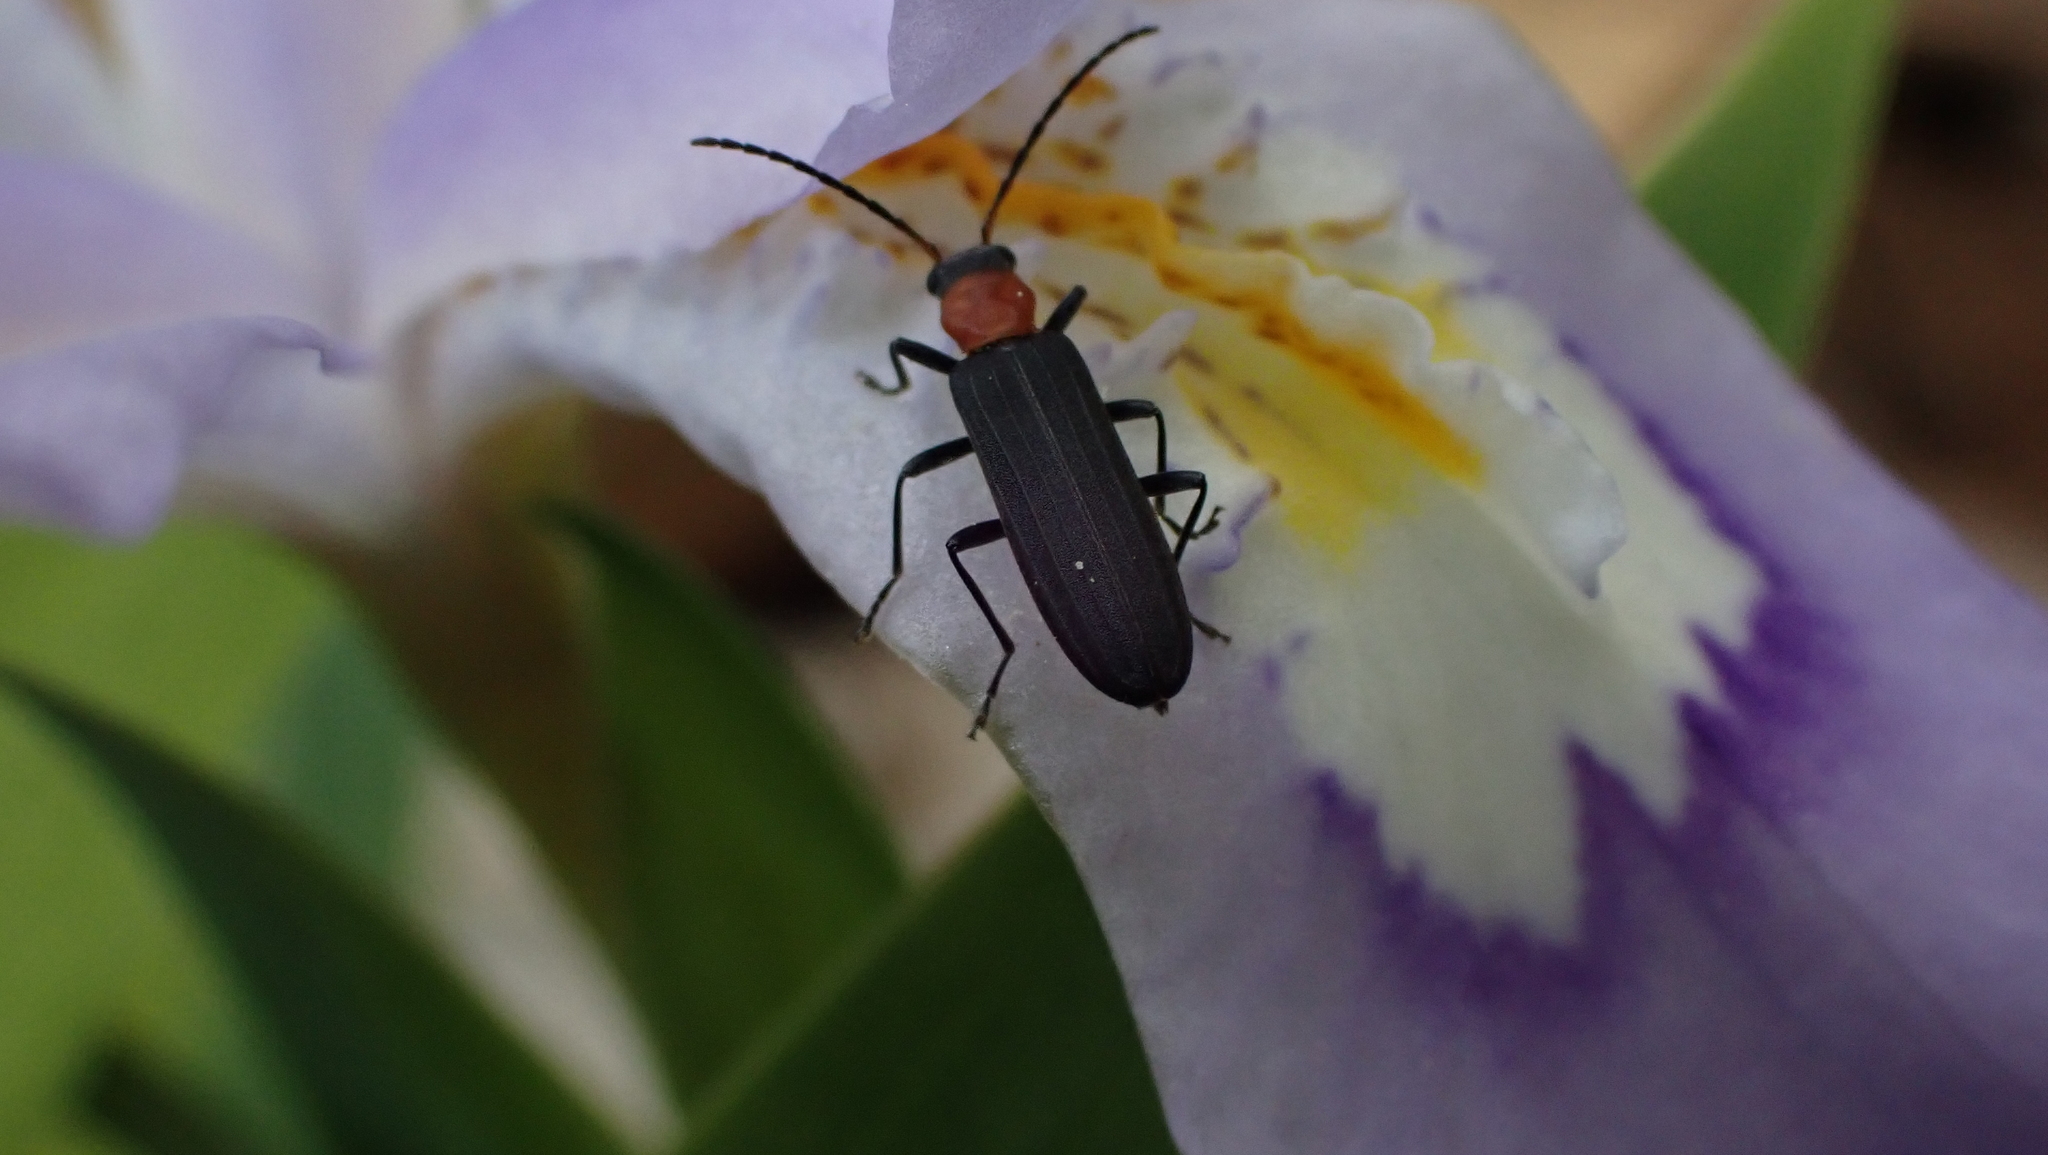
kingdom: Animalia
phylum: Arthropoda
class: Insecta
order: Coleoptera
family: Oedemeridae
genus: Ischnomera
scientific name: Ischnomera
